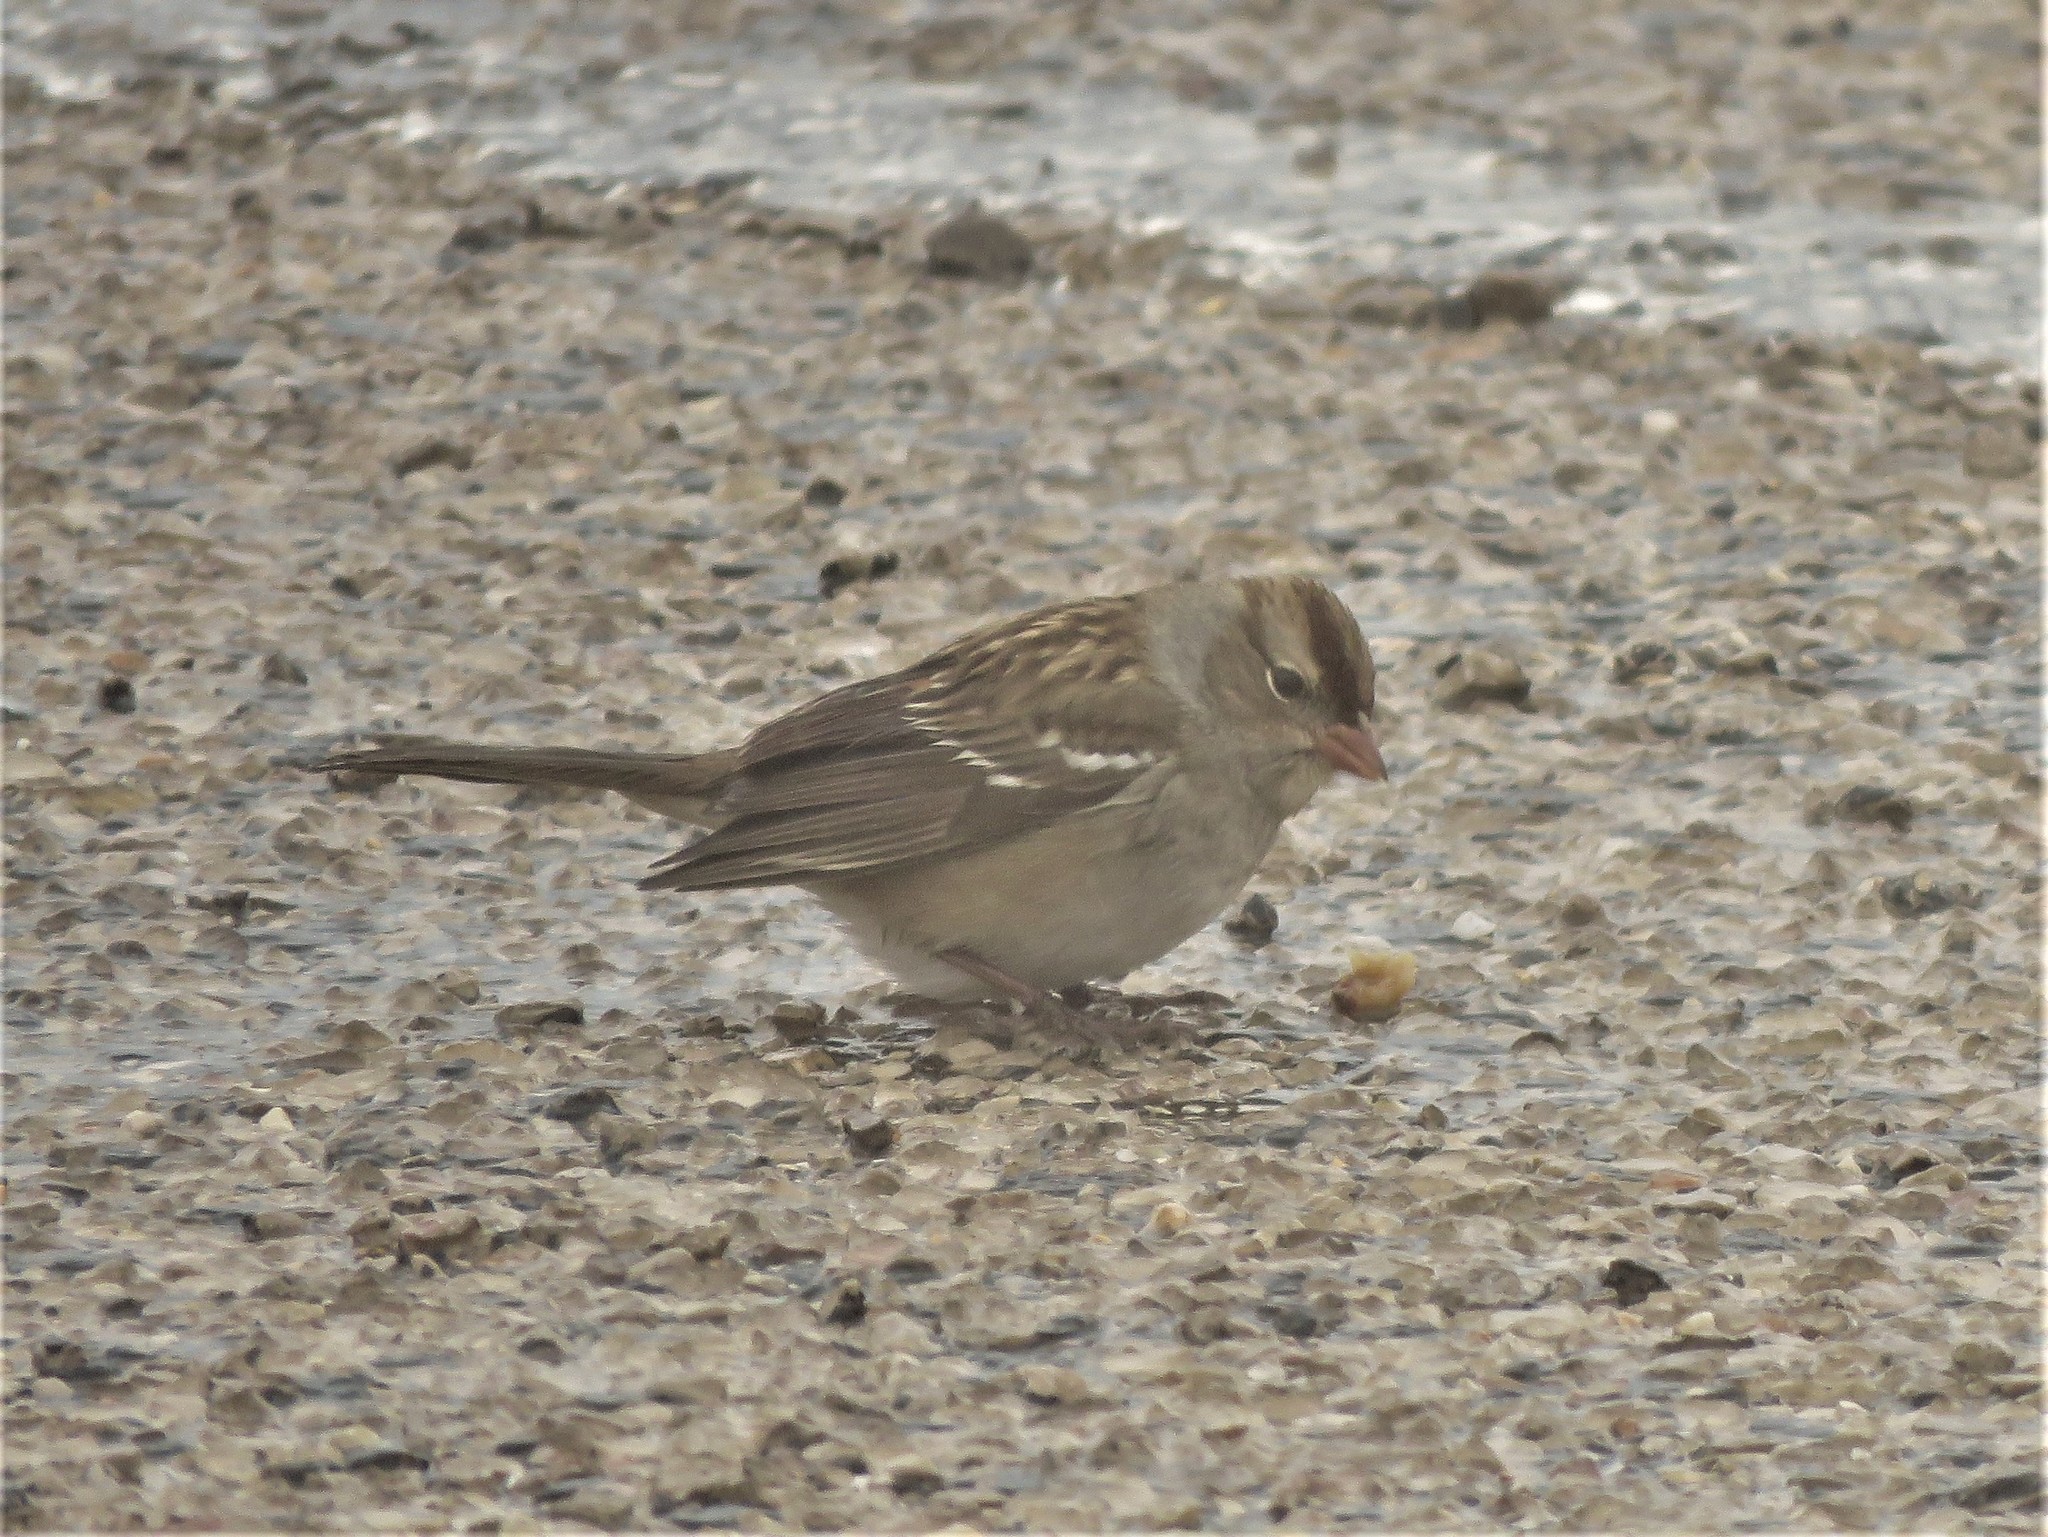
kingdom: Animalia
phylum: Chordata
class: Aves
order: Passeriformes
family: Passerellidae
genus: Zonotrichia
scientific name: Zonotrichia leucophrys
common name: White-crowned sparrow
